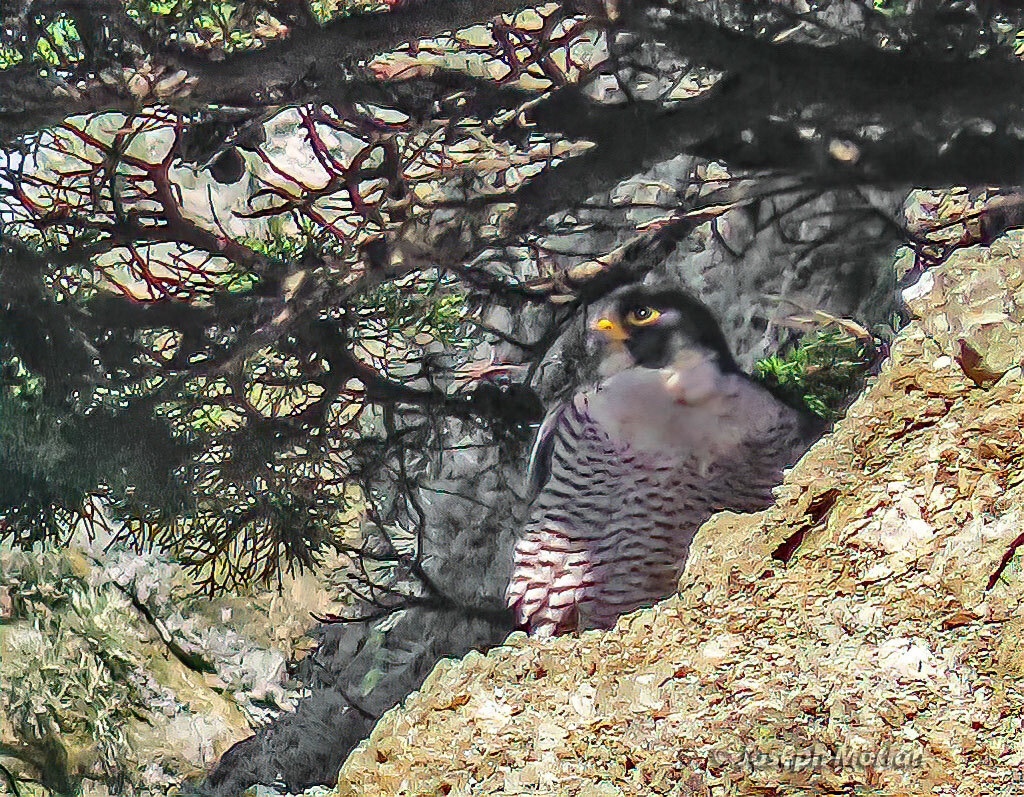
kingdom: Animalia
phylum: Chordata
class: Aves
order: Falconiformes
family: Falconidae
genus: Falco
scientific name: Falco peregrinus
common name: Peregrine falcon
